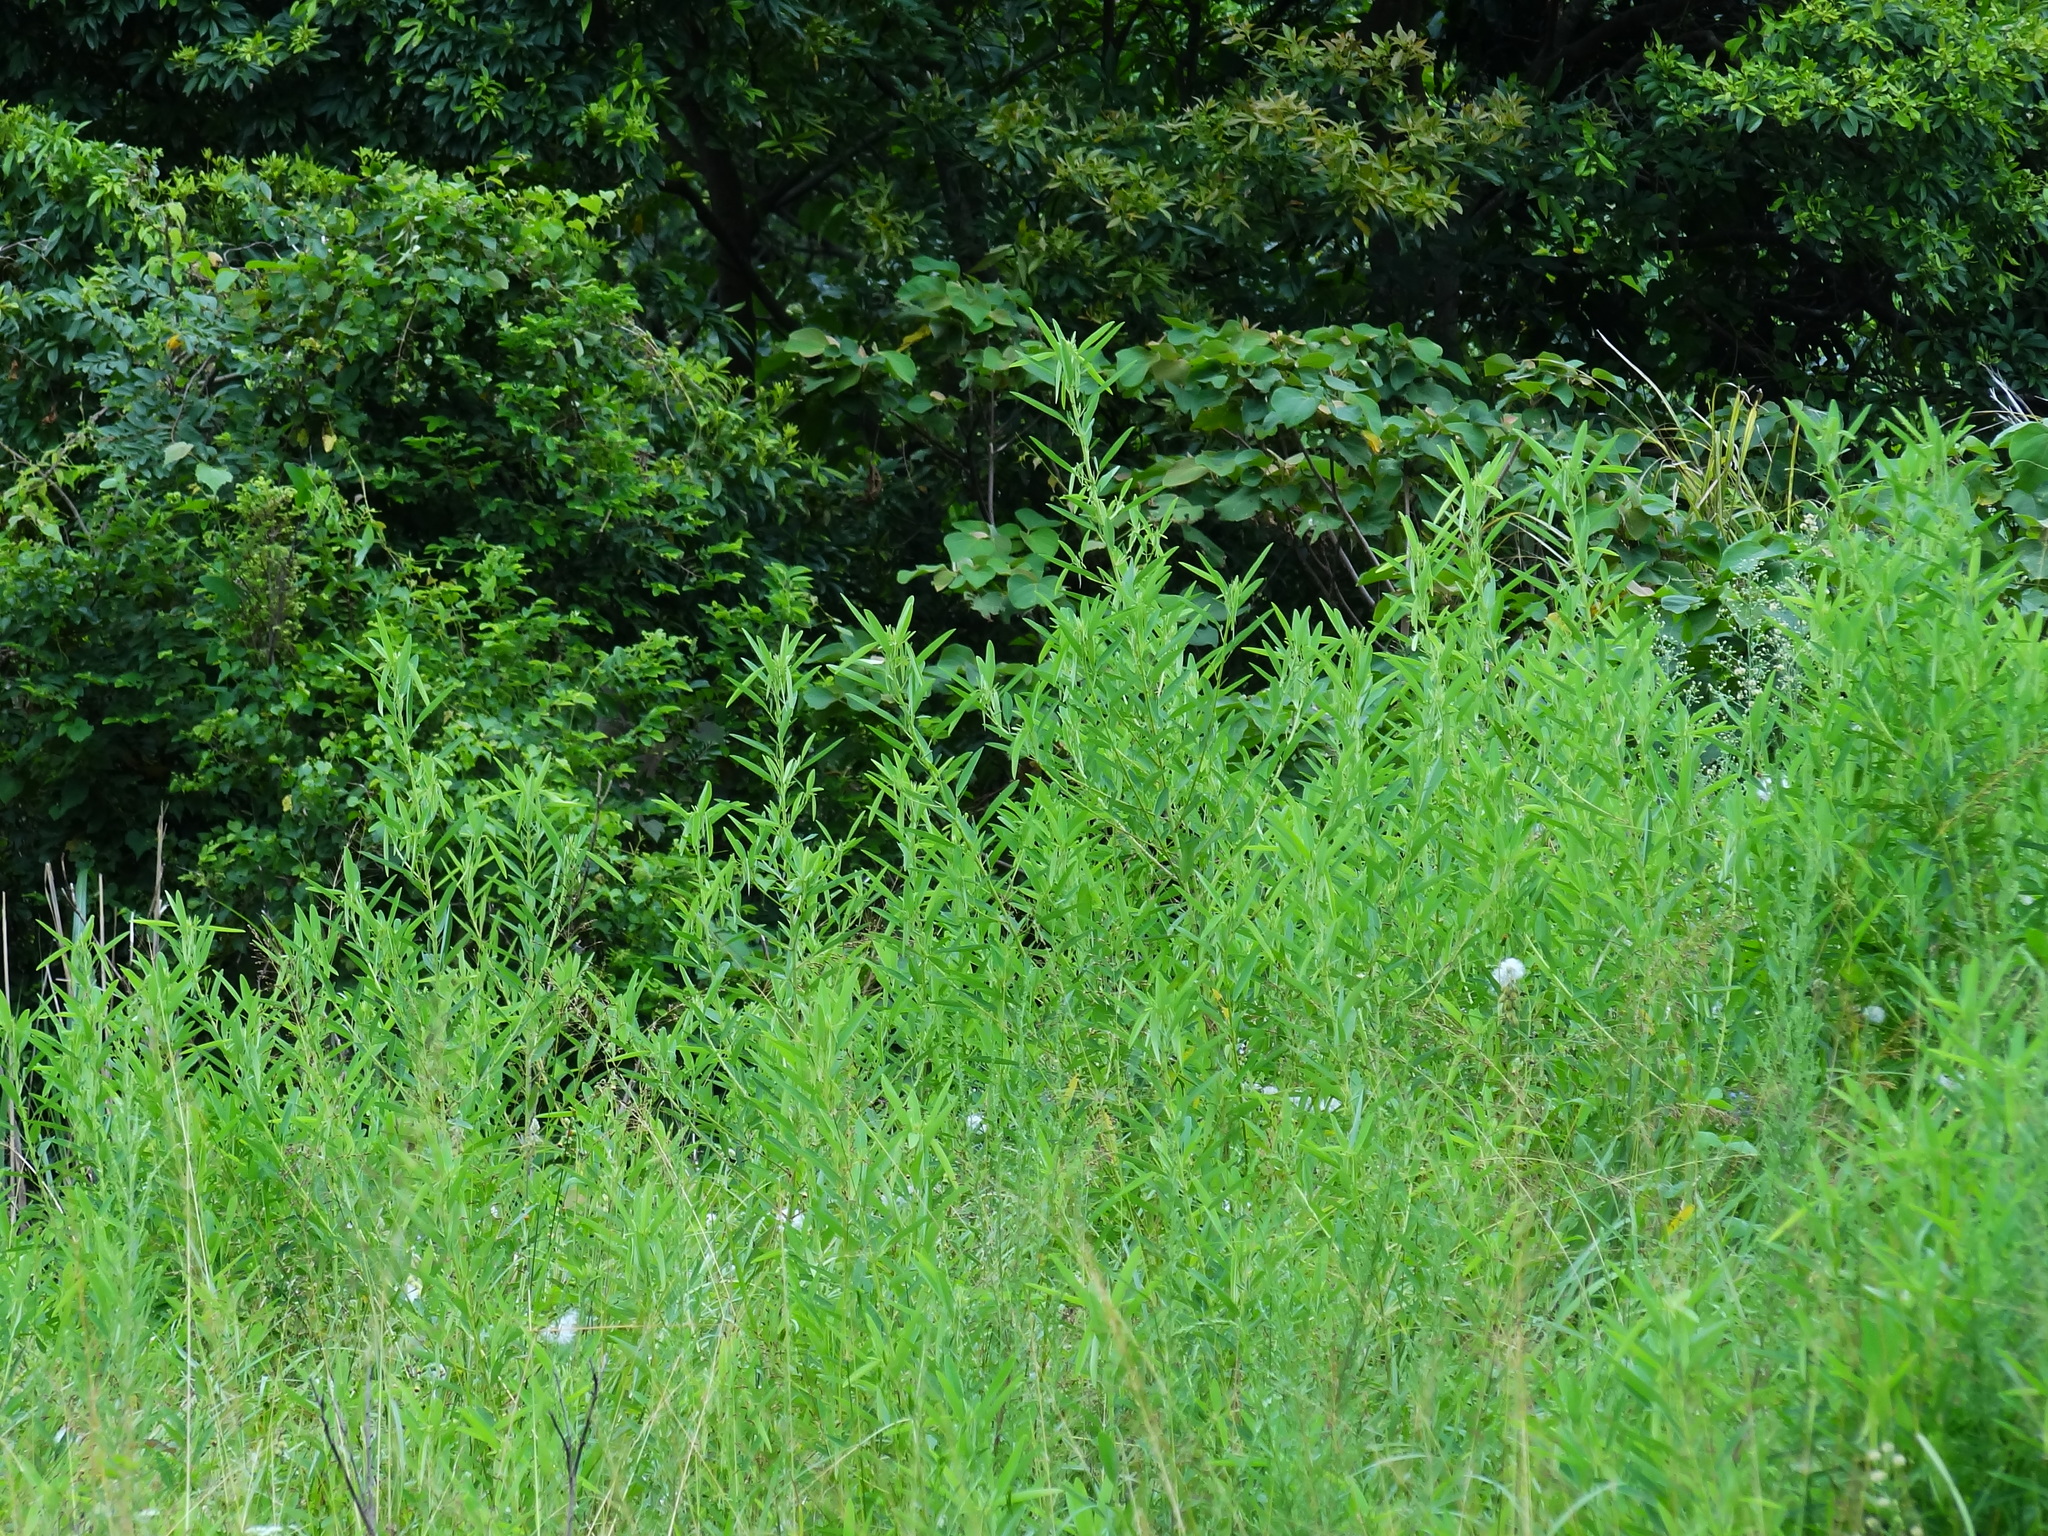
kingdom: Plantae
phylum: Tracheophyta
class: Magnoliopsida
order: Fabales
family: Fabaceae
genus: Codariocalyx
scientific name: Codariocalyx motorius
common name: Telegraph-plant
